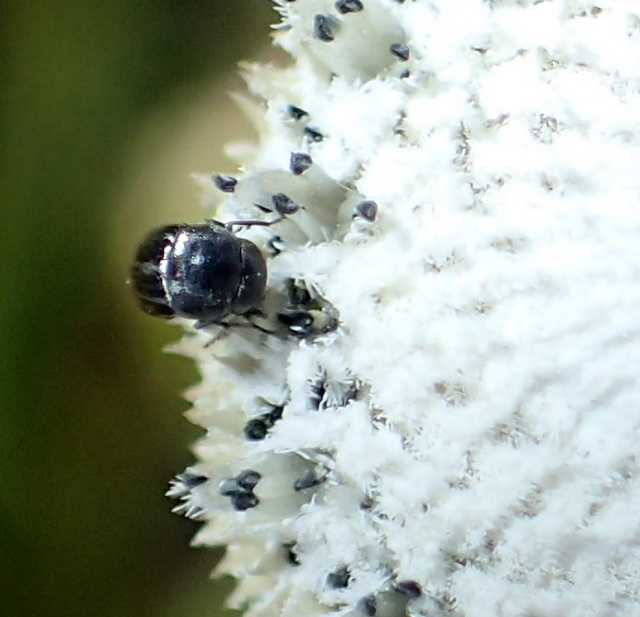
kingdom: Animalia
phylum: Arthropoda
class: Insecta
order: Coleoptera
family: Mordellidae
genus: Mordella
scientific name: Mordella marginata
